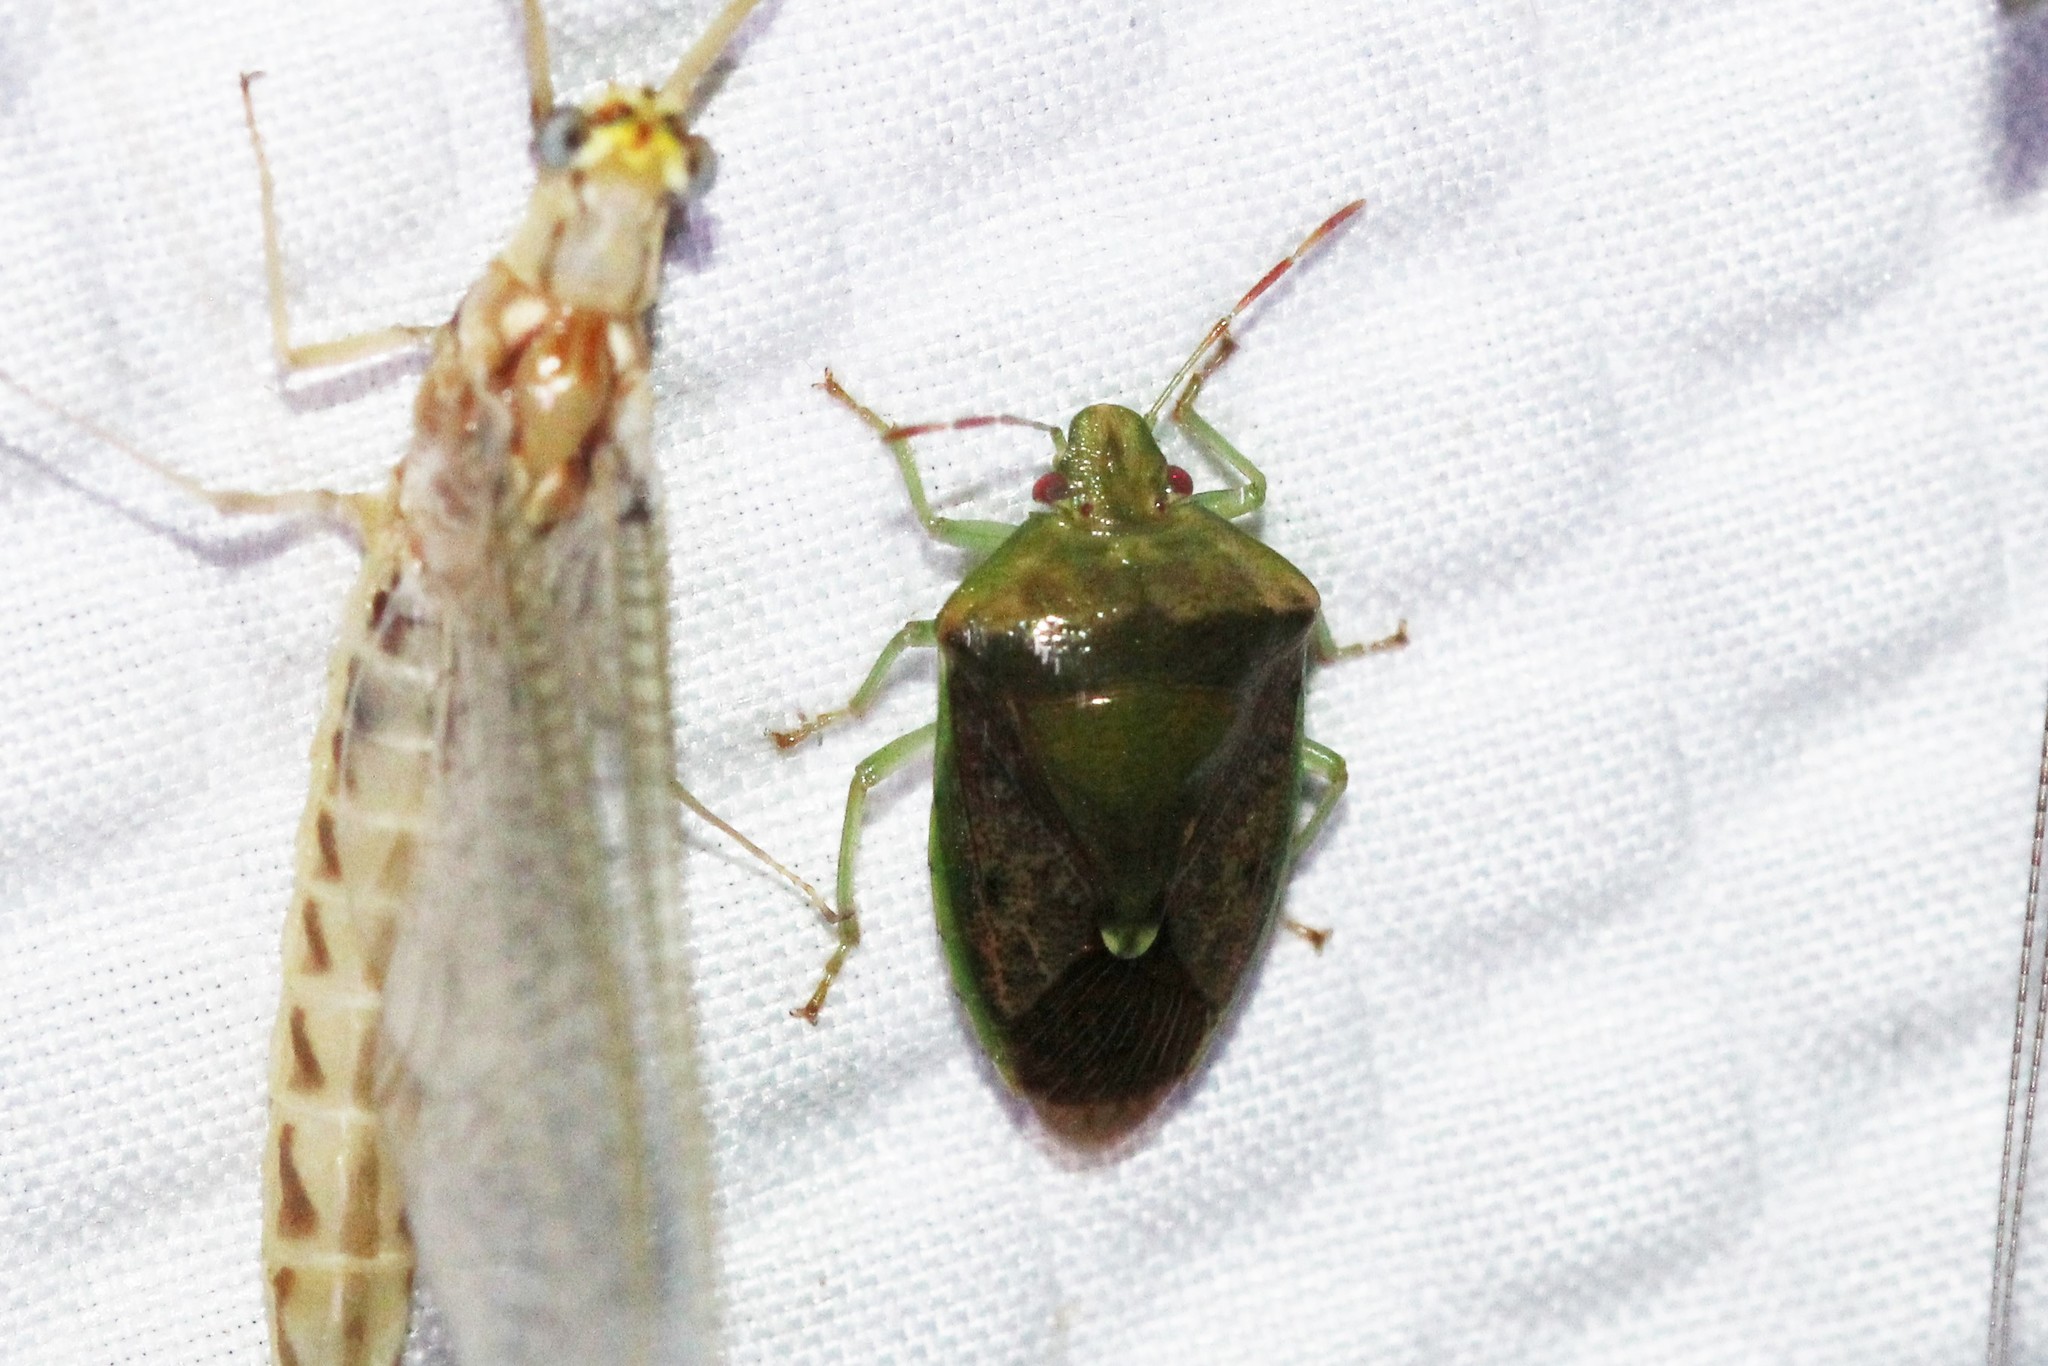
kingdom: Animalia
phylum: Arthropoda
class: Insecta
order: Hemiptera
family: Pentatomidae
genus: Banasa
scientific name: Banasa calva
